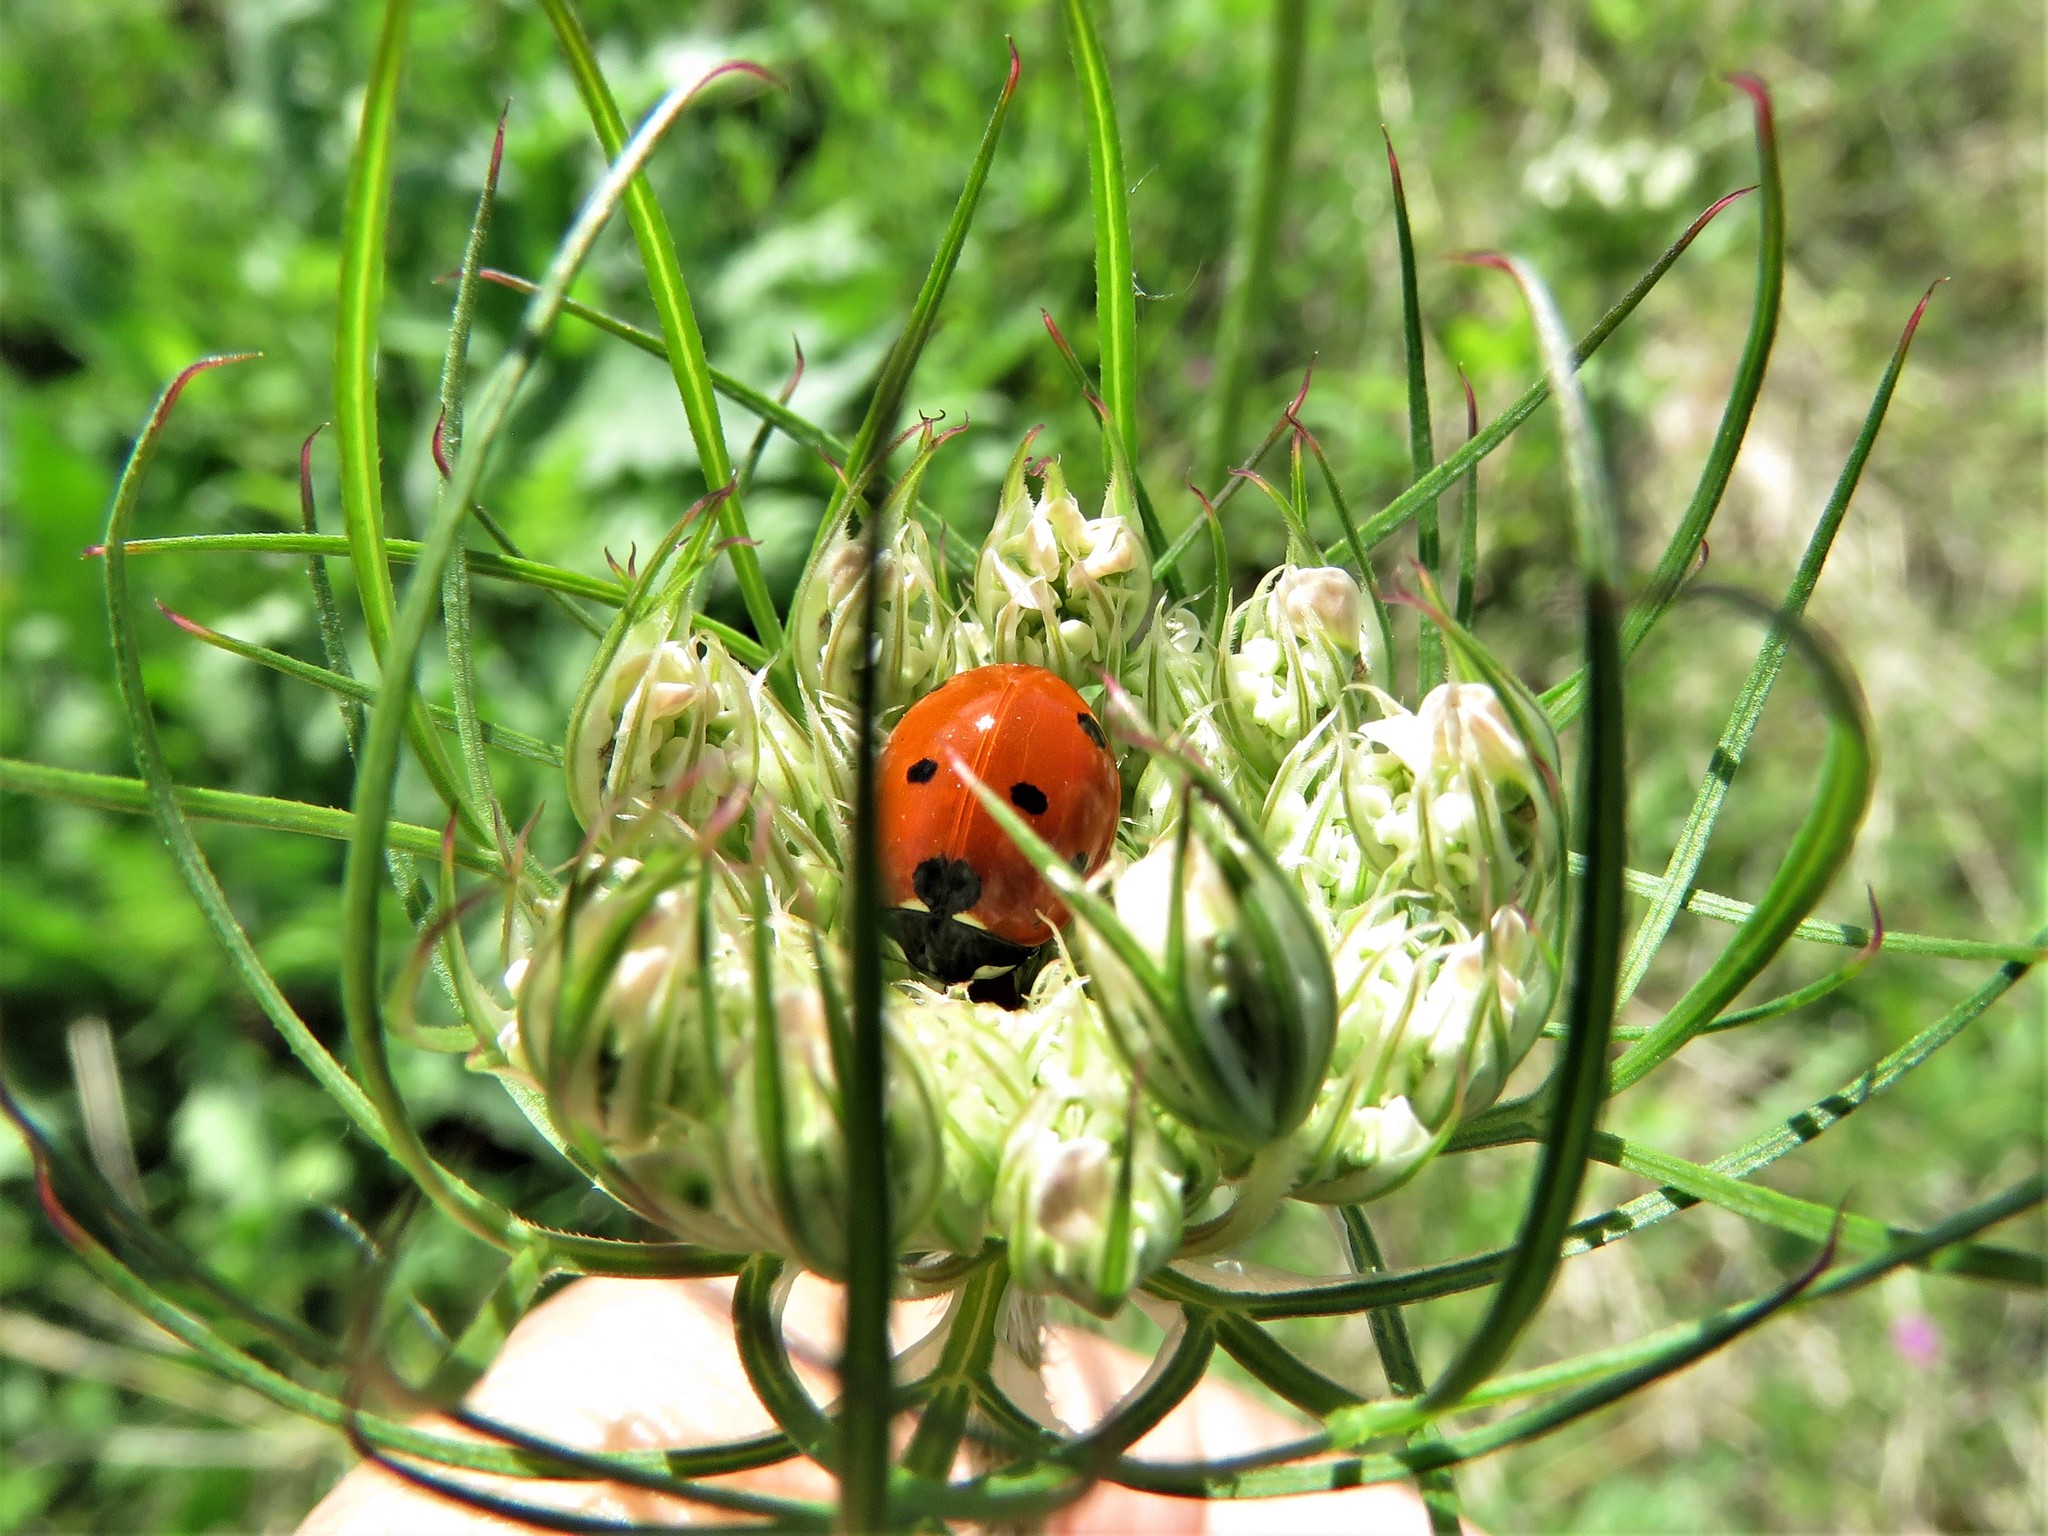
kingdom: Animalia
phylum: Arthropoda
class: Insecta
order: Coleoptera
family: Coccinellidae
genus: Coccinella
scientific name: Coccinella septempunctata
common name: Sevenspotted lady beetle
